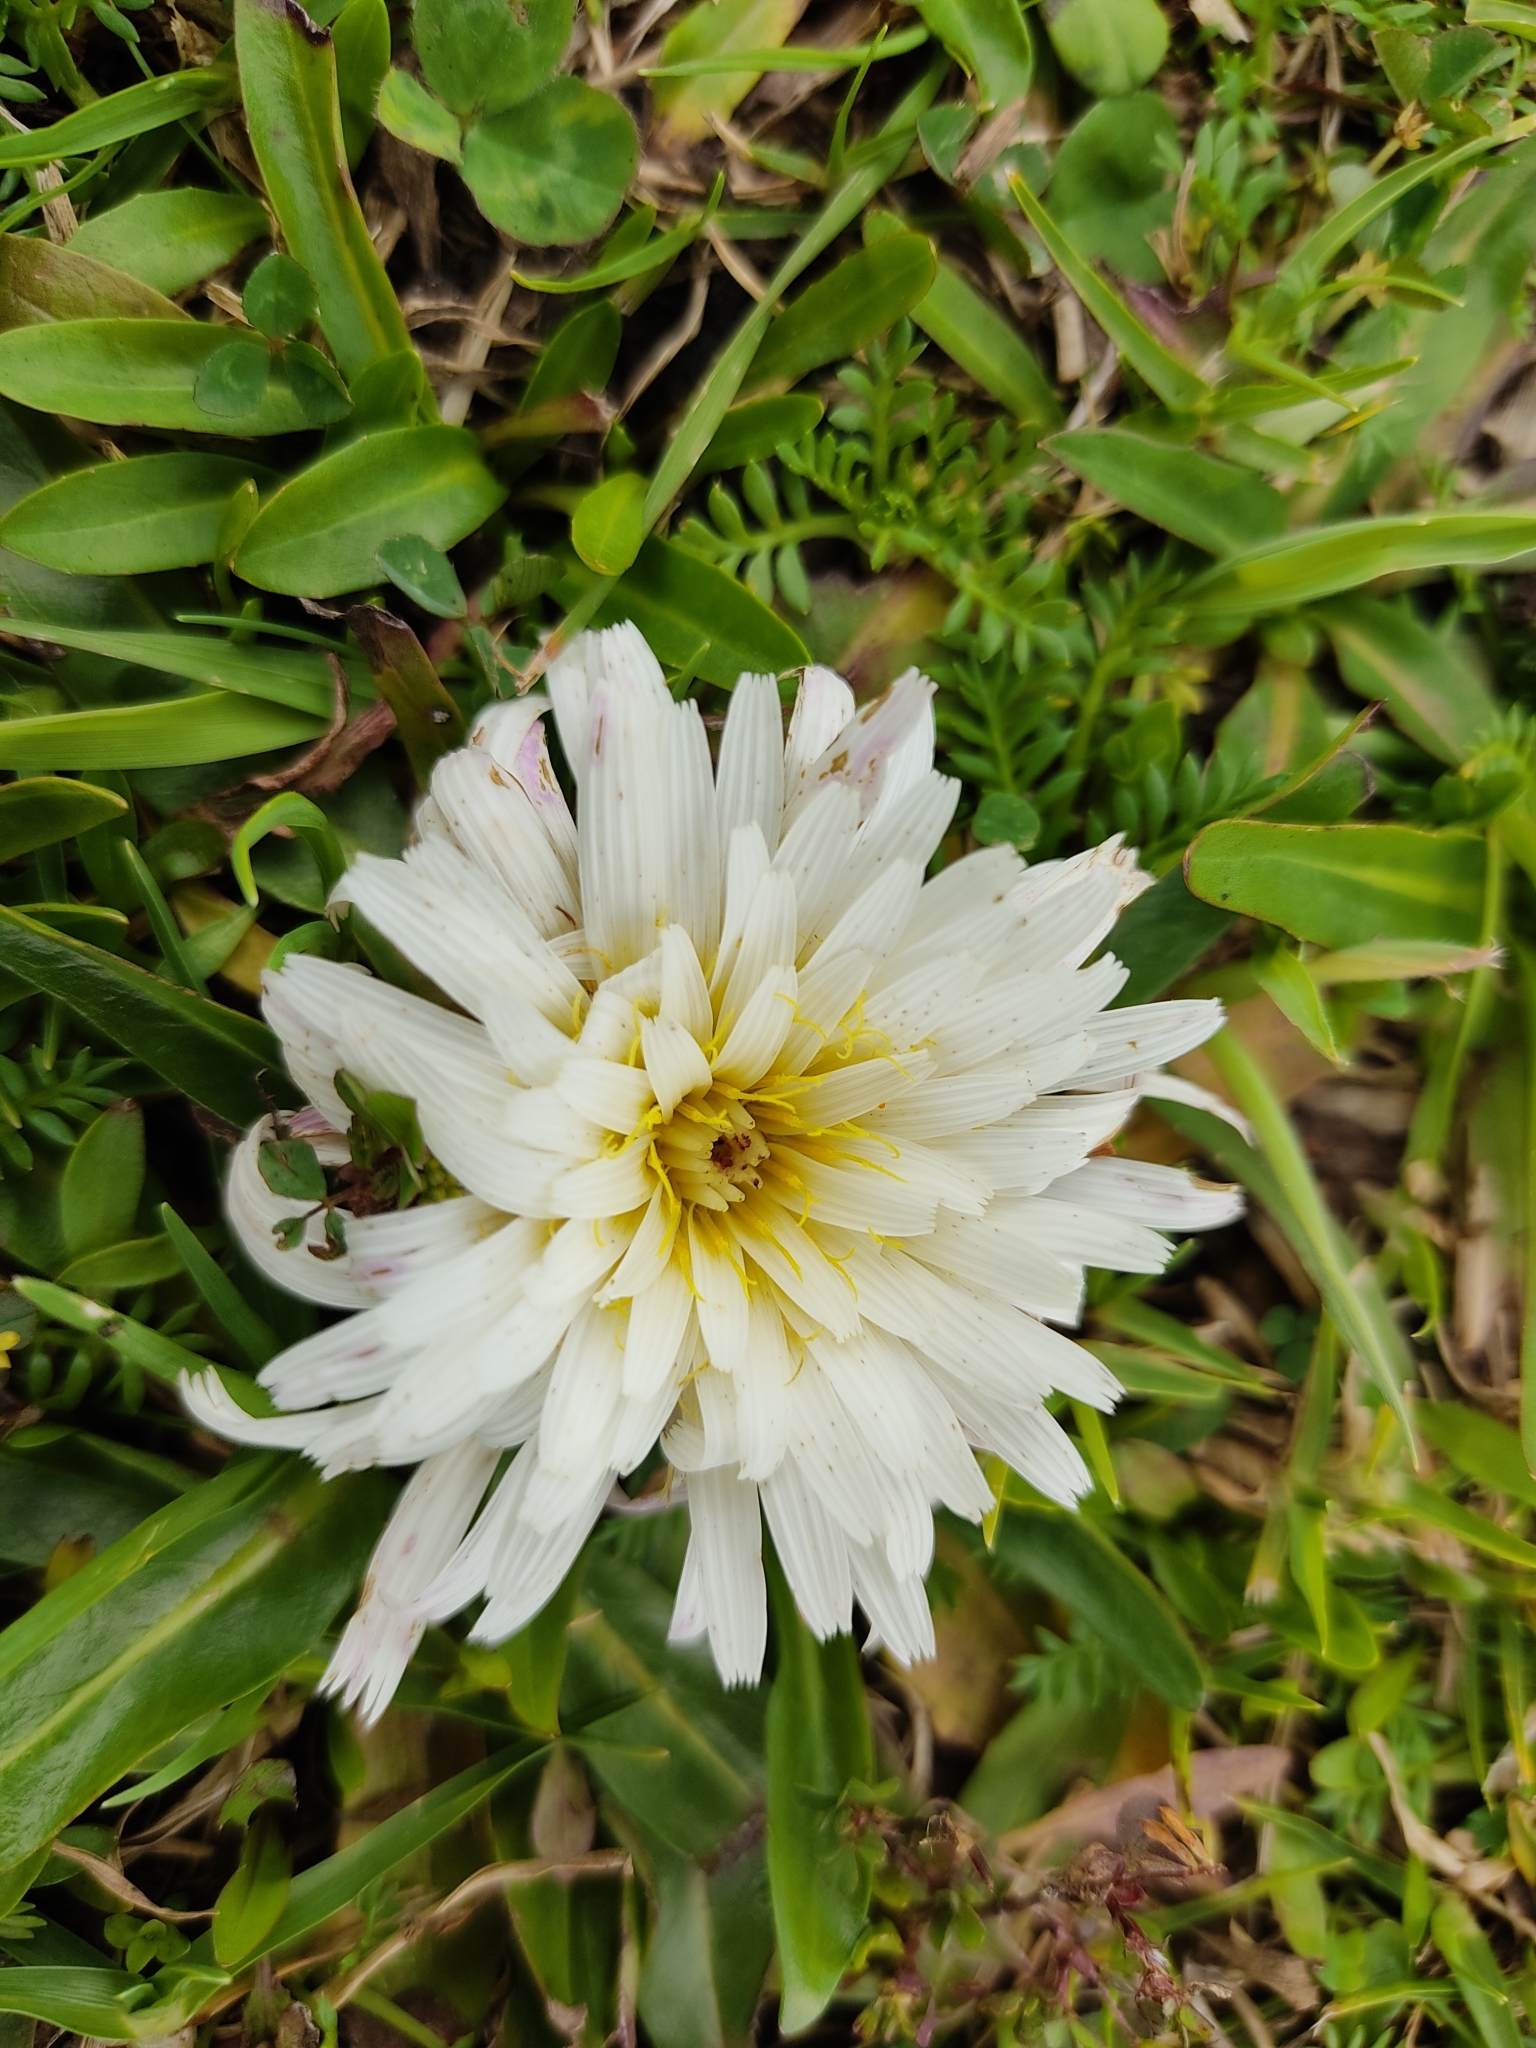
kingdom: Plantae
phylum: Tracheophyta
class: Magnoliopsida
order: Asterales
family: Asteraceae
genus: Hypochaeris
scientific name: Hypochaeris sessiliflora
